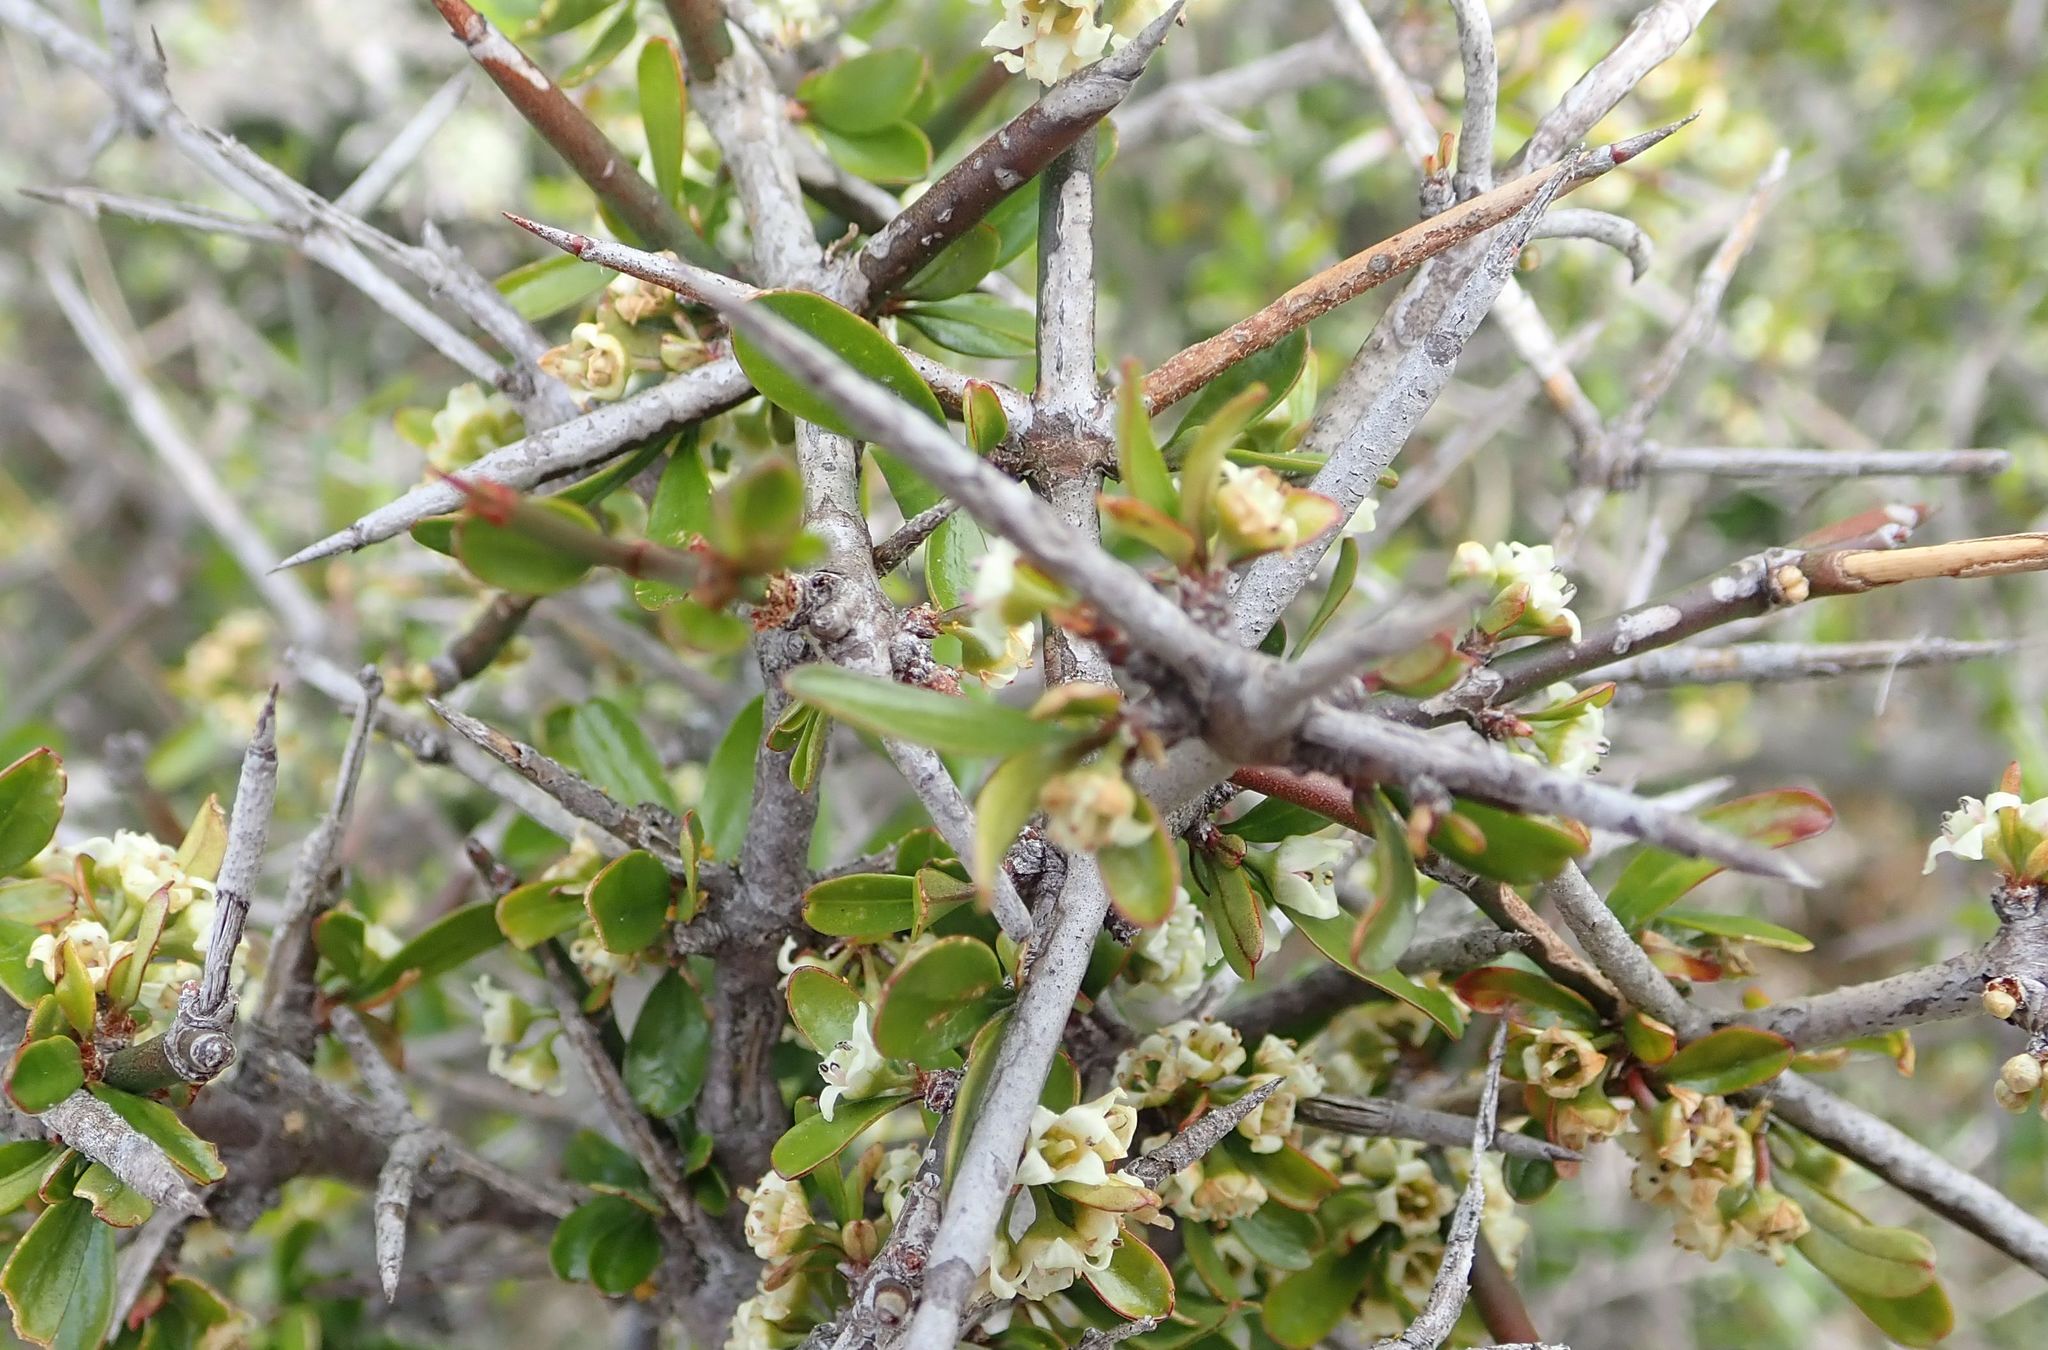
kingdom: Plantae
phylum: Tracheophyta
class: Magnoliopsida
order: Rosales
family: Rhamnaceae
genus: Discaria
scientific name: Discaria toumatou
